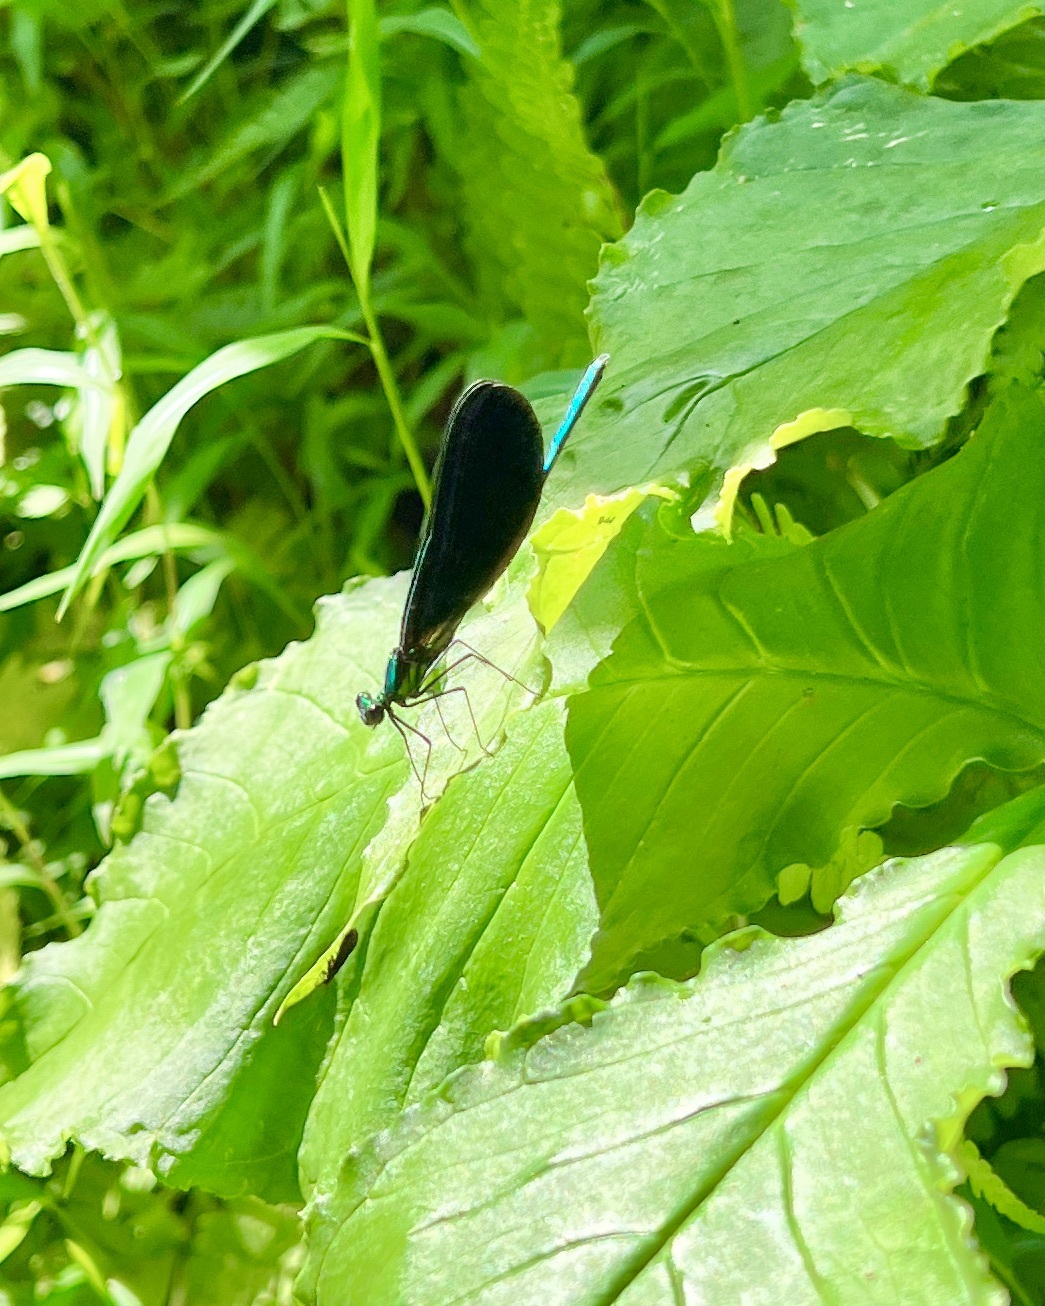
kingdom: Animalia
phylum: Arthropoda
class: Insecta
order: Odonata
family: Calopterygidae
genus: Calopteryx
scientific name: Calopteryx maculata
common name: Ebony jewelwing
